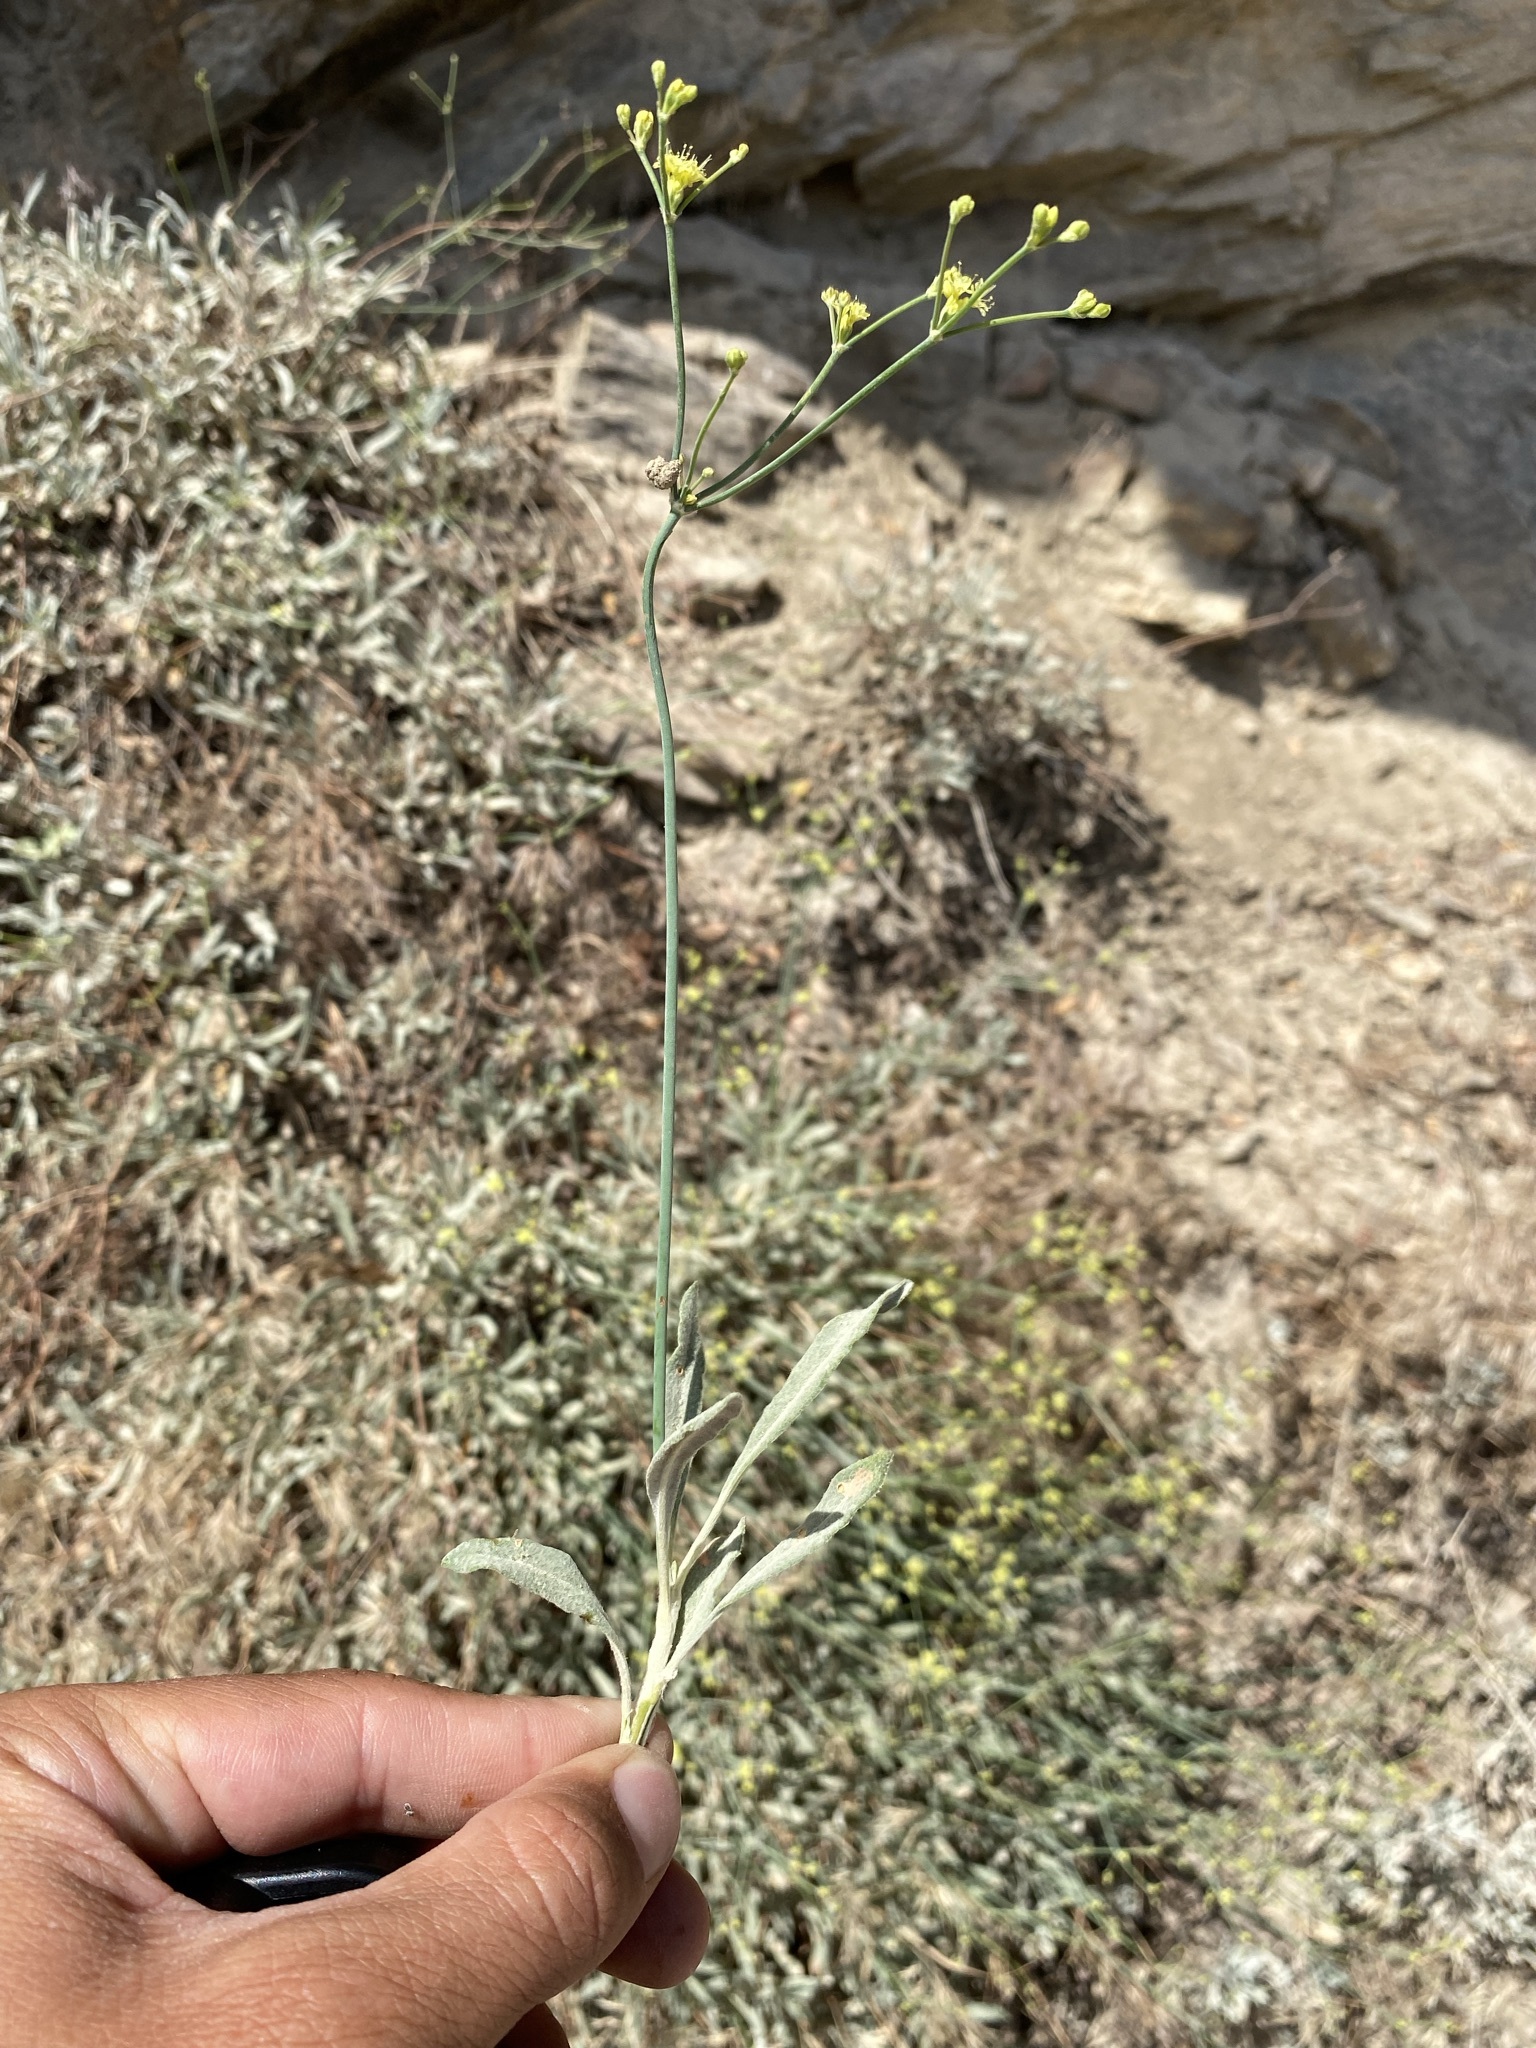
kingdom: Plantae
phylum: Tracheophyta
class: Magnoliopsida
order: Caryophyllales
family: Polygonaceae
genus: Eriogonum
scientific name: Eriogonum brevicaule
